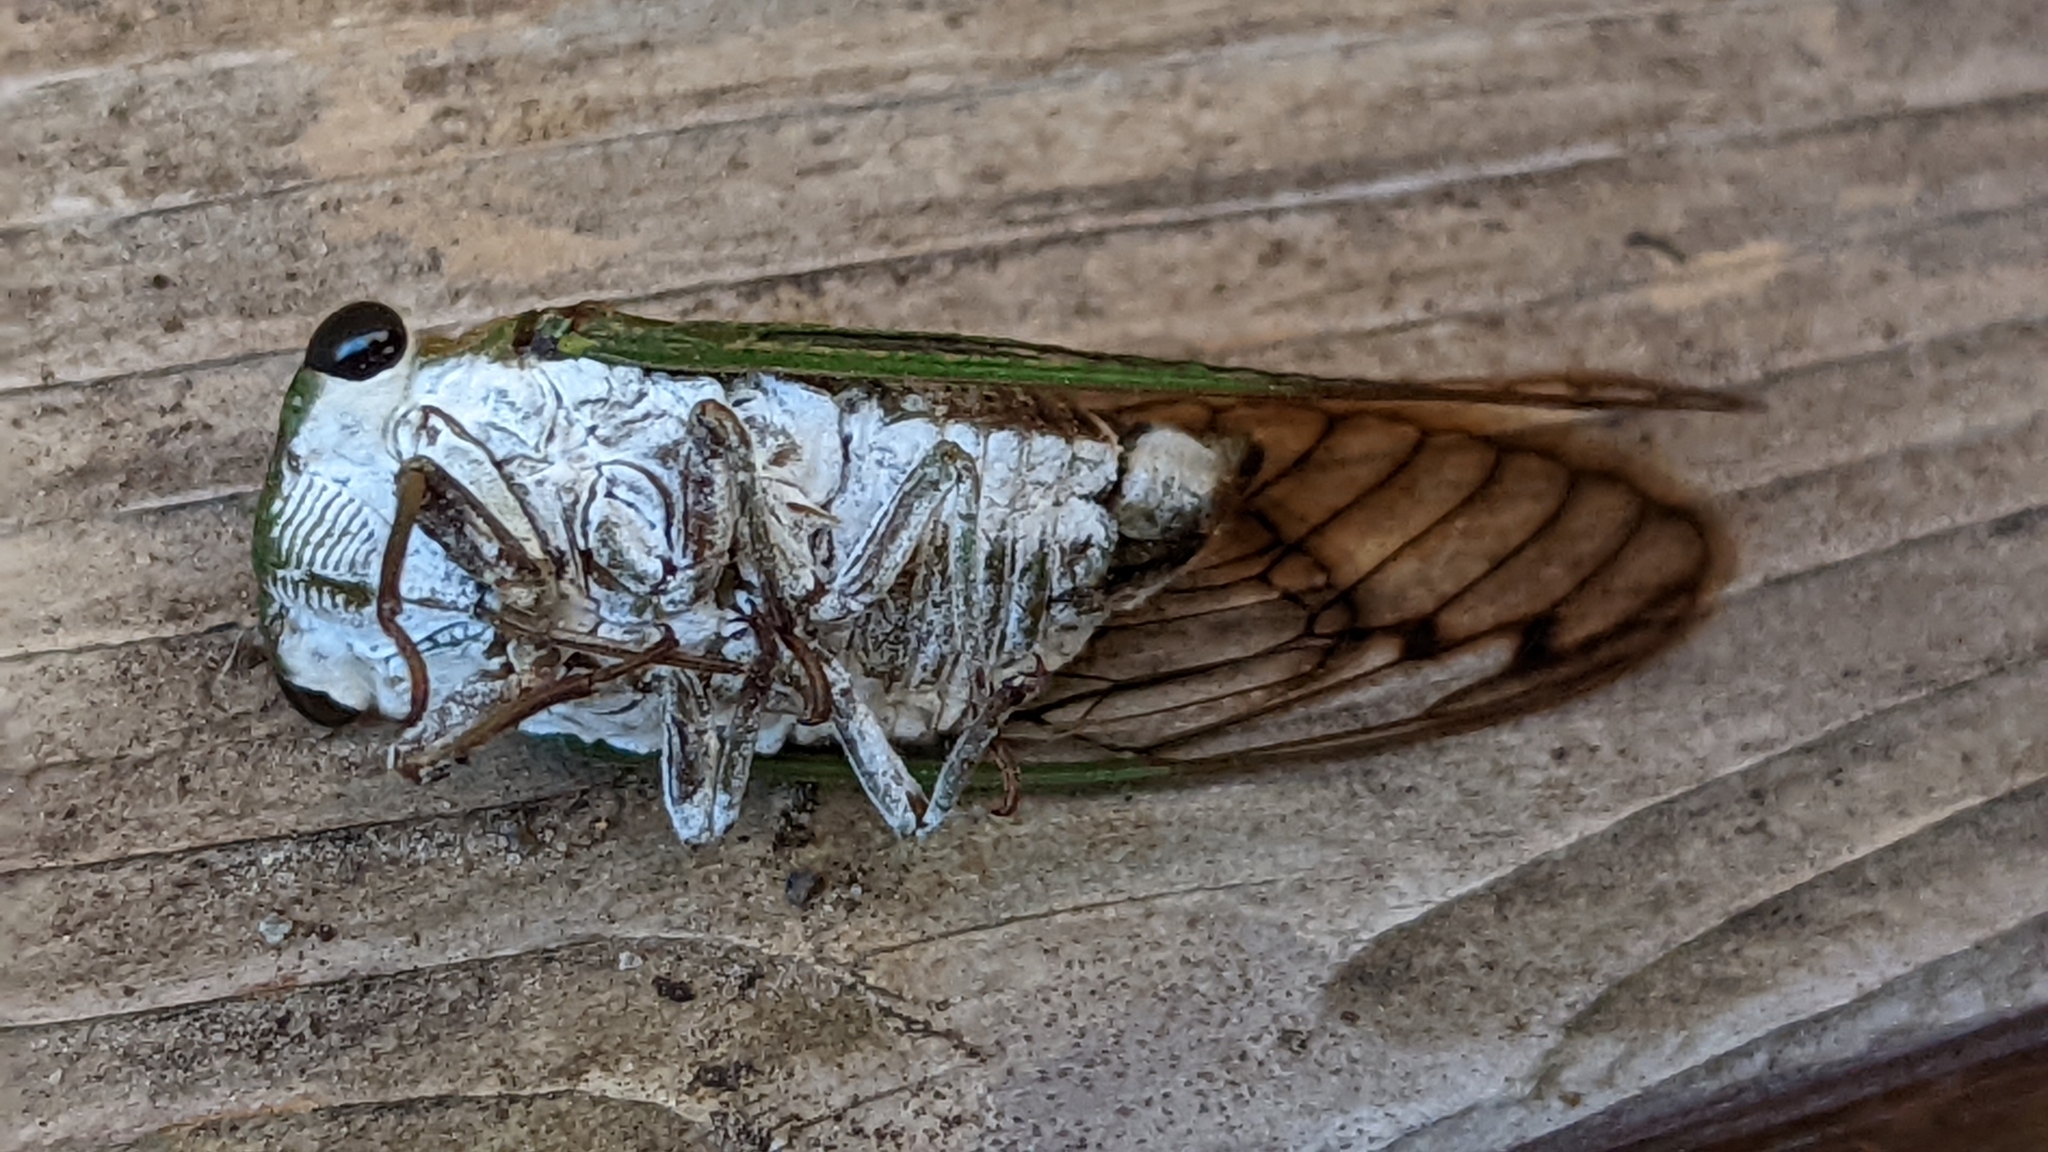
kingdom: Animalia
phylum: Arthropoda
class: Insecta
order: Hemiptera
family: Cicadidae
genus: Neotibicen
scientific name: Neotibicen superbus
